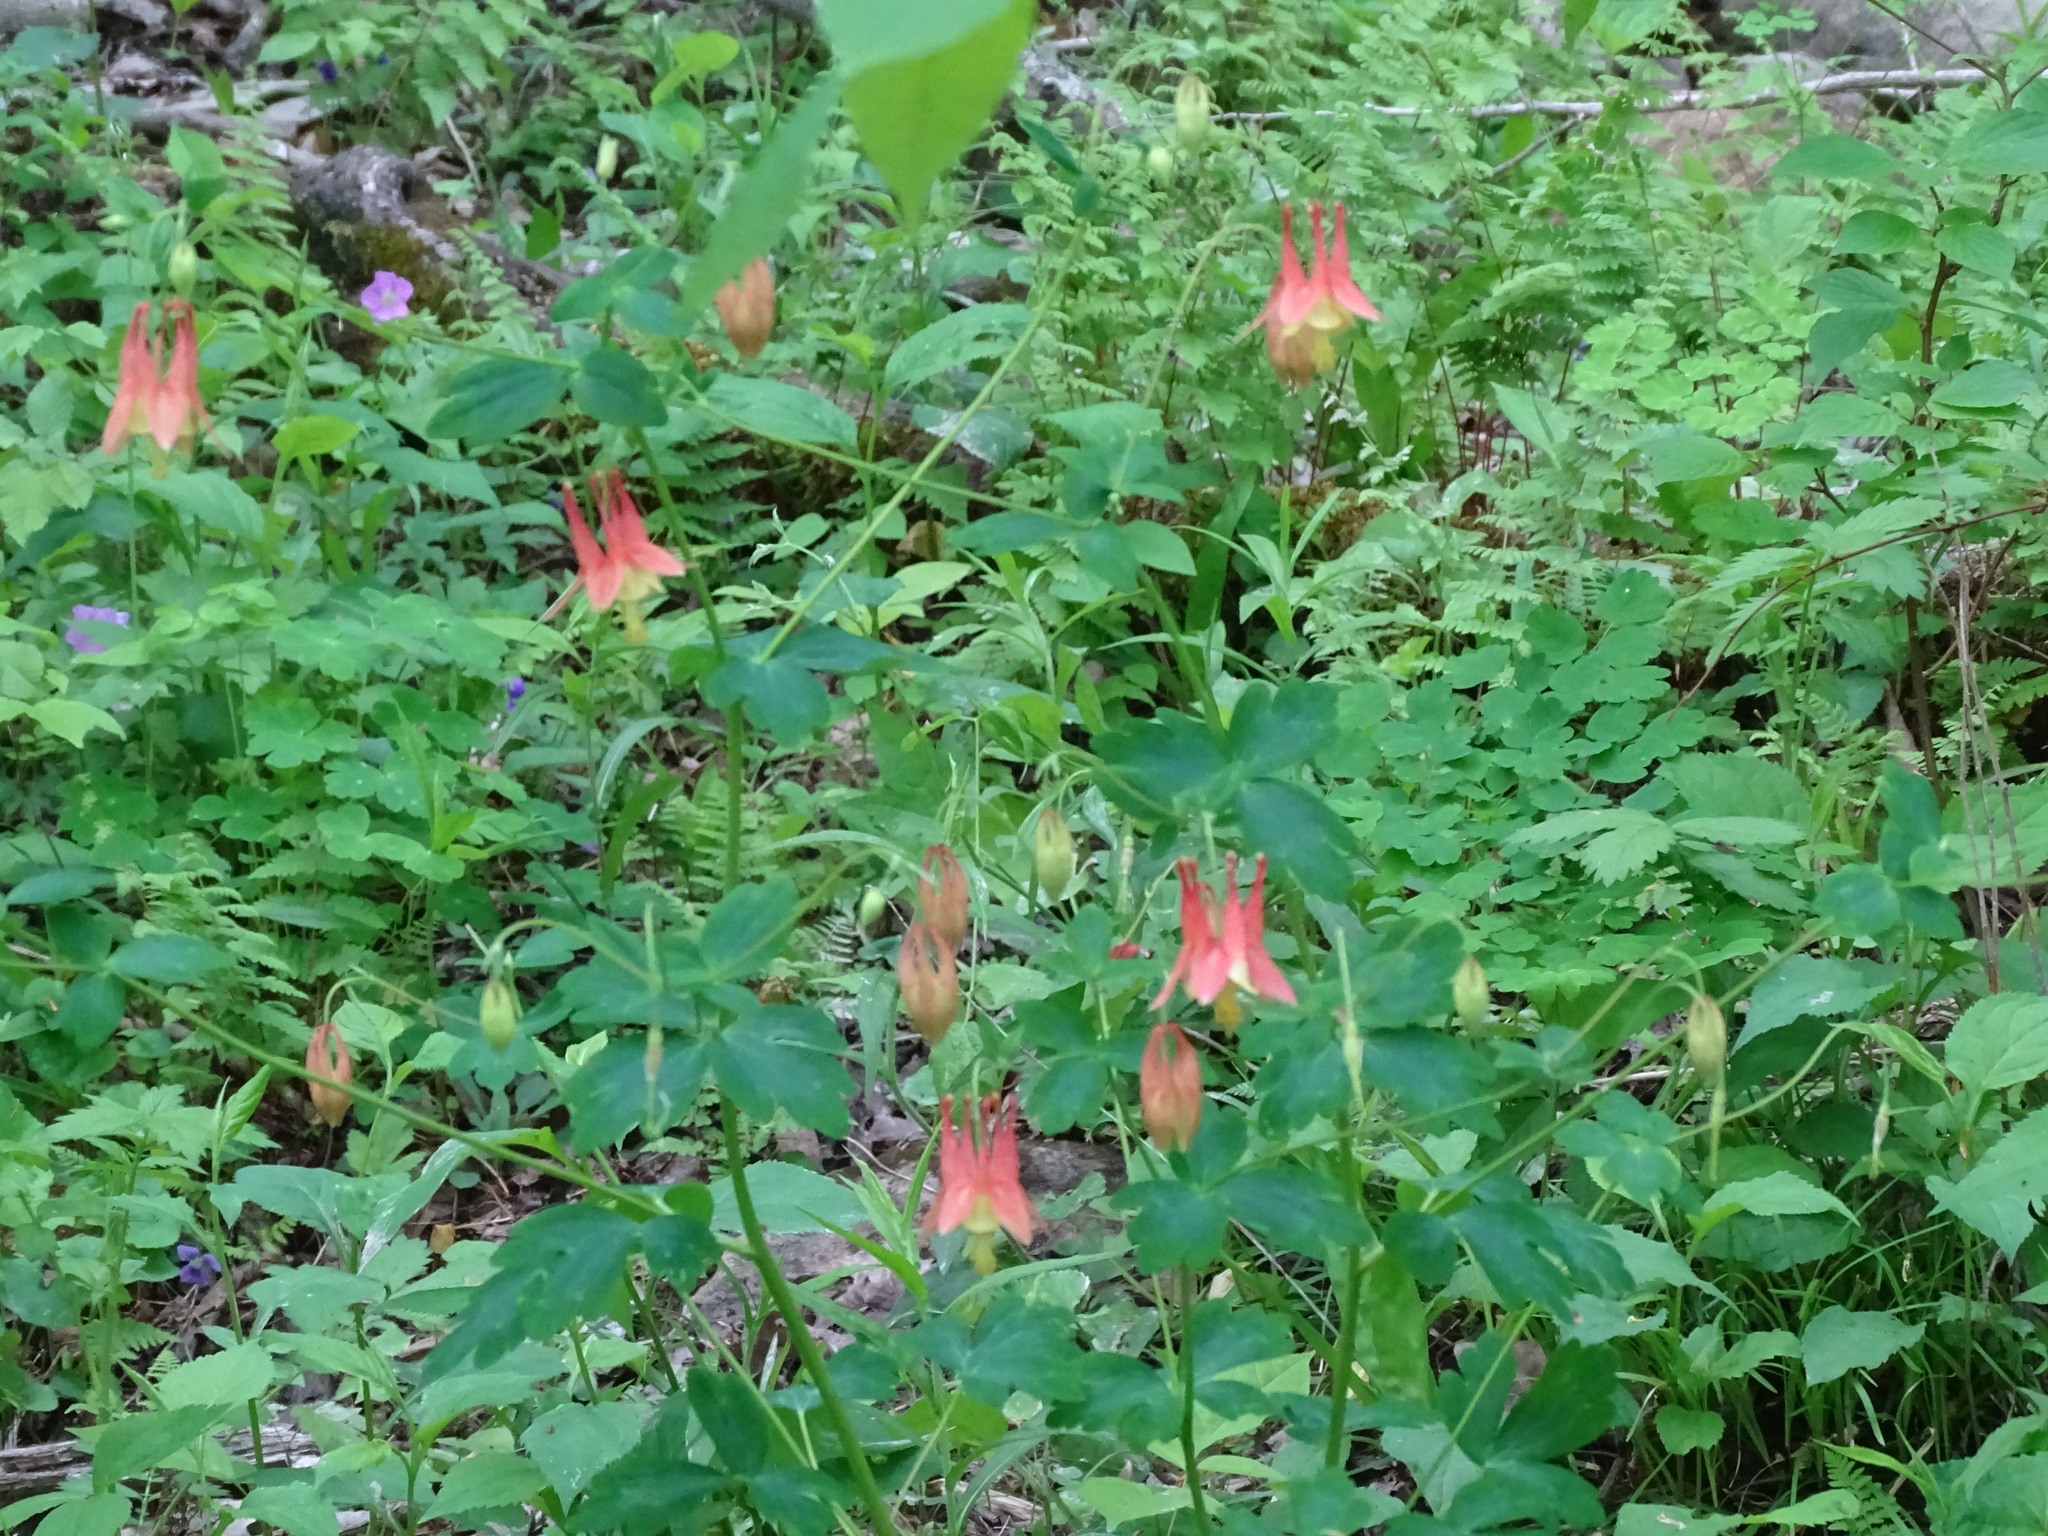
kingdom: Plantae
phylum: Tracheophyta
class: Magnoliopsida
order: Ranunculales
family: Ranunculaceae
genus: Aquilegia
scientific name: Aquilegia canadensis
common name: American columbine
